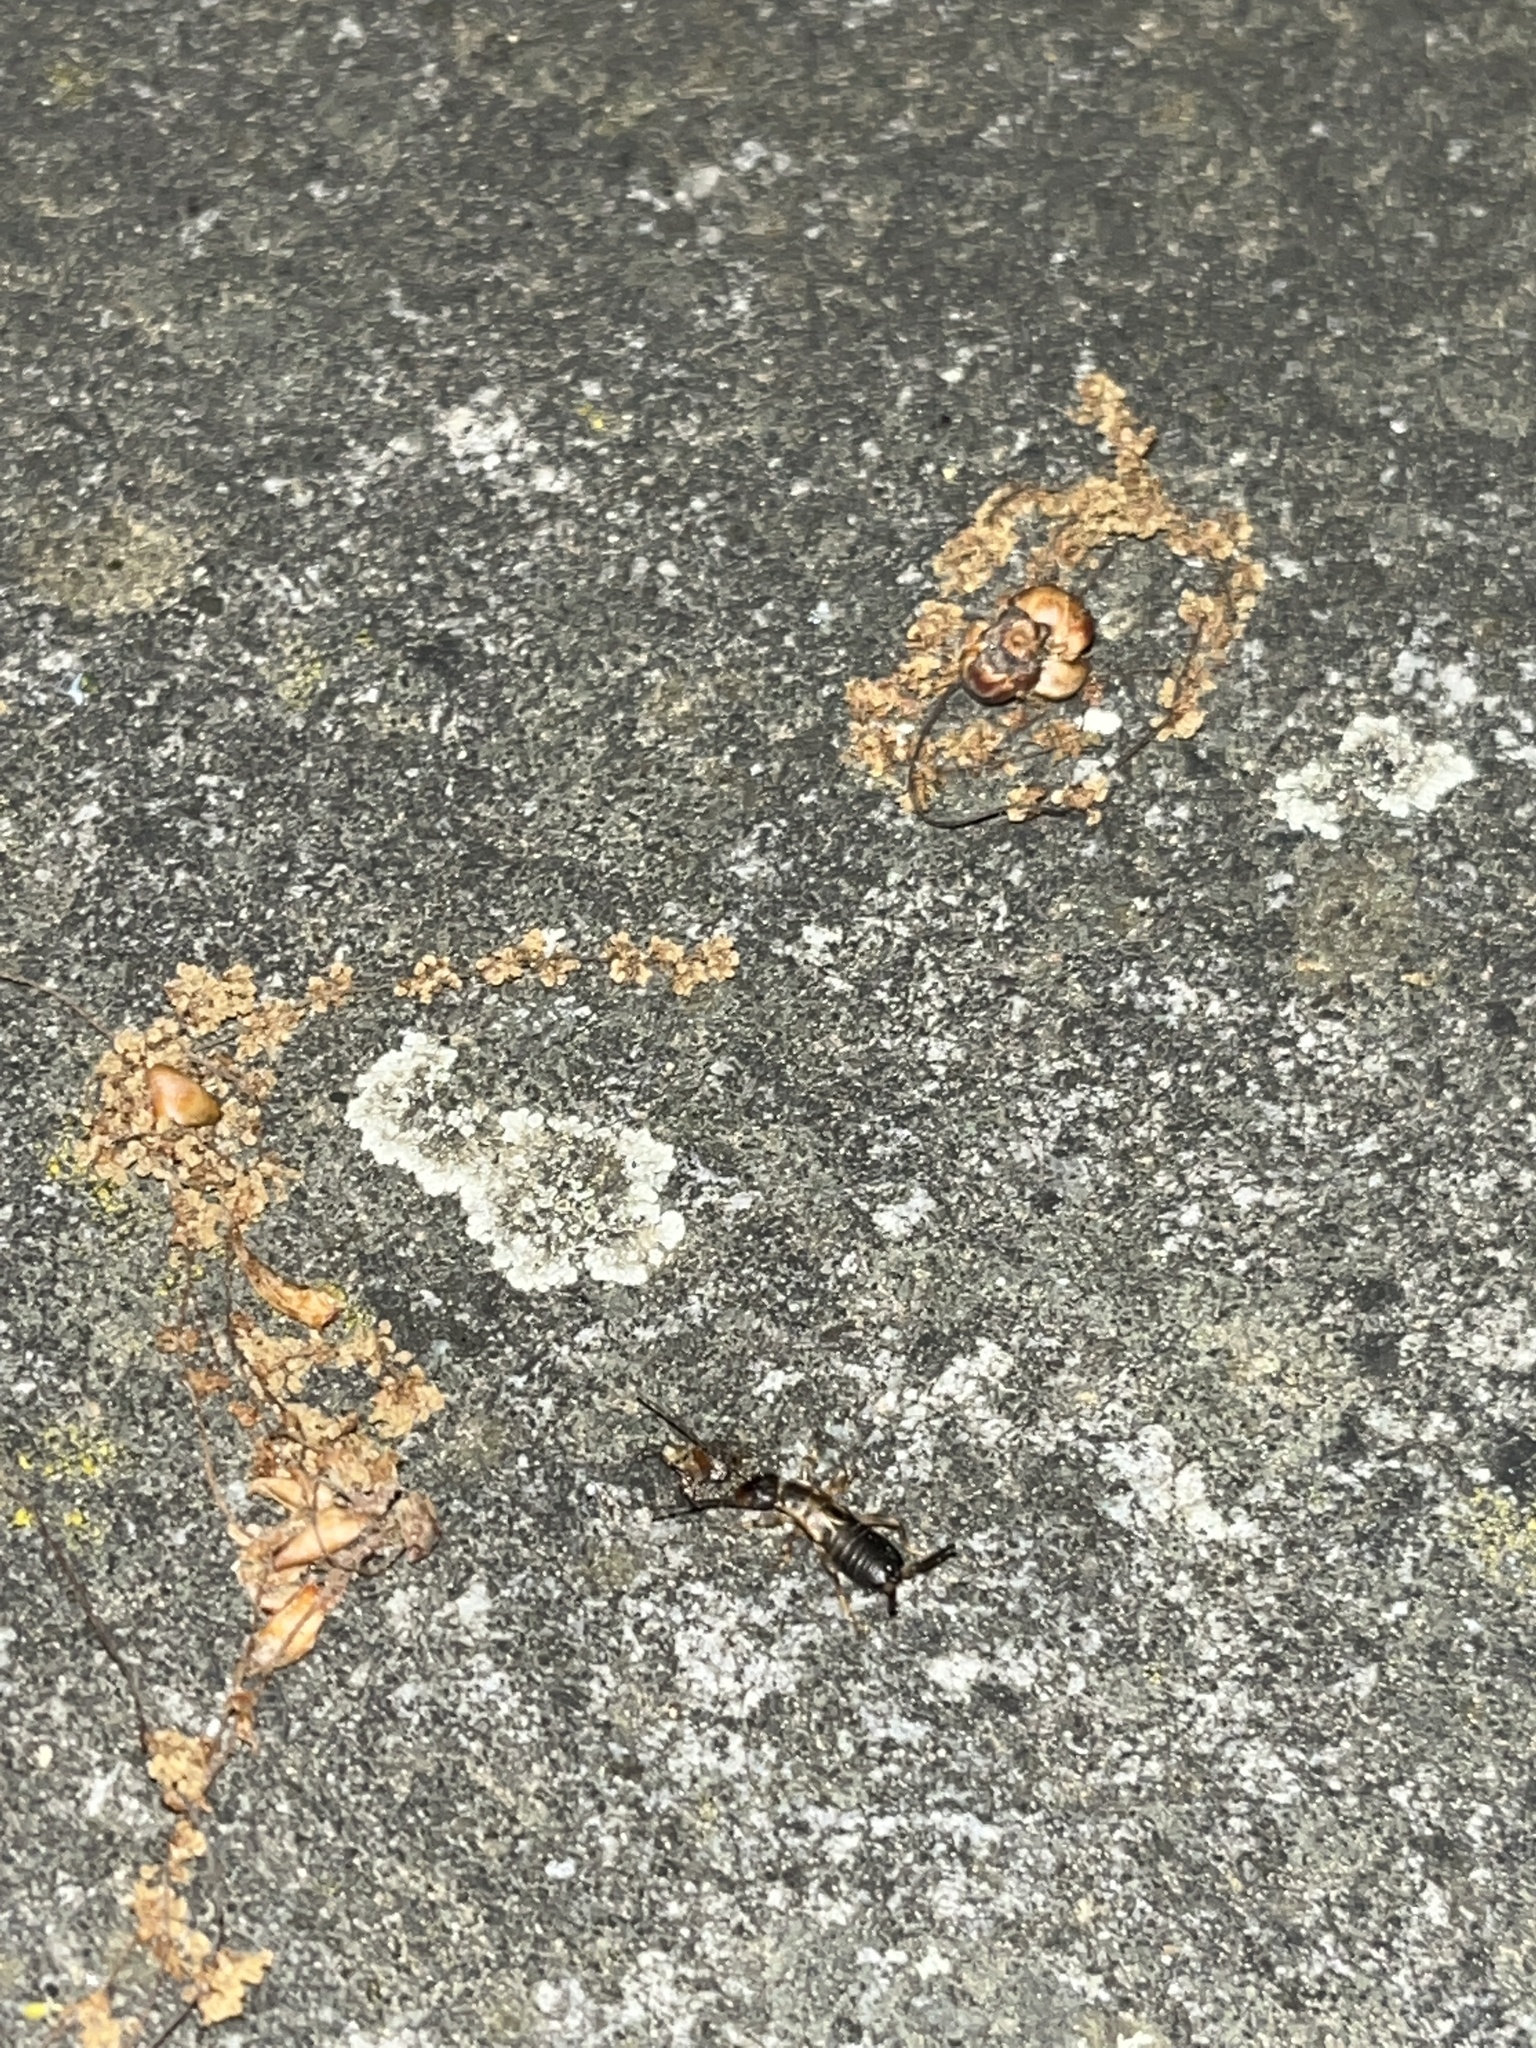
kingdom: Animalia
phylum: Arthropoda
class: Insecta
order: Dermaptera
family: Forficulidae
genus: Forficula
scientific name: Forficula
